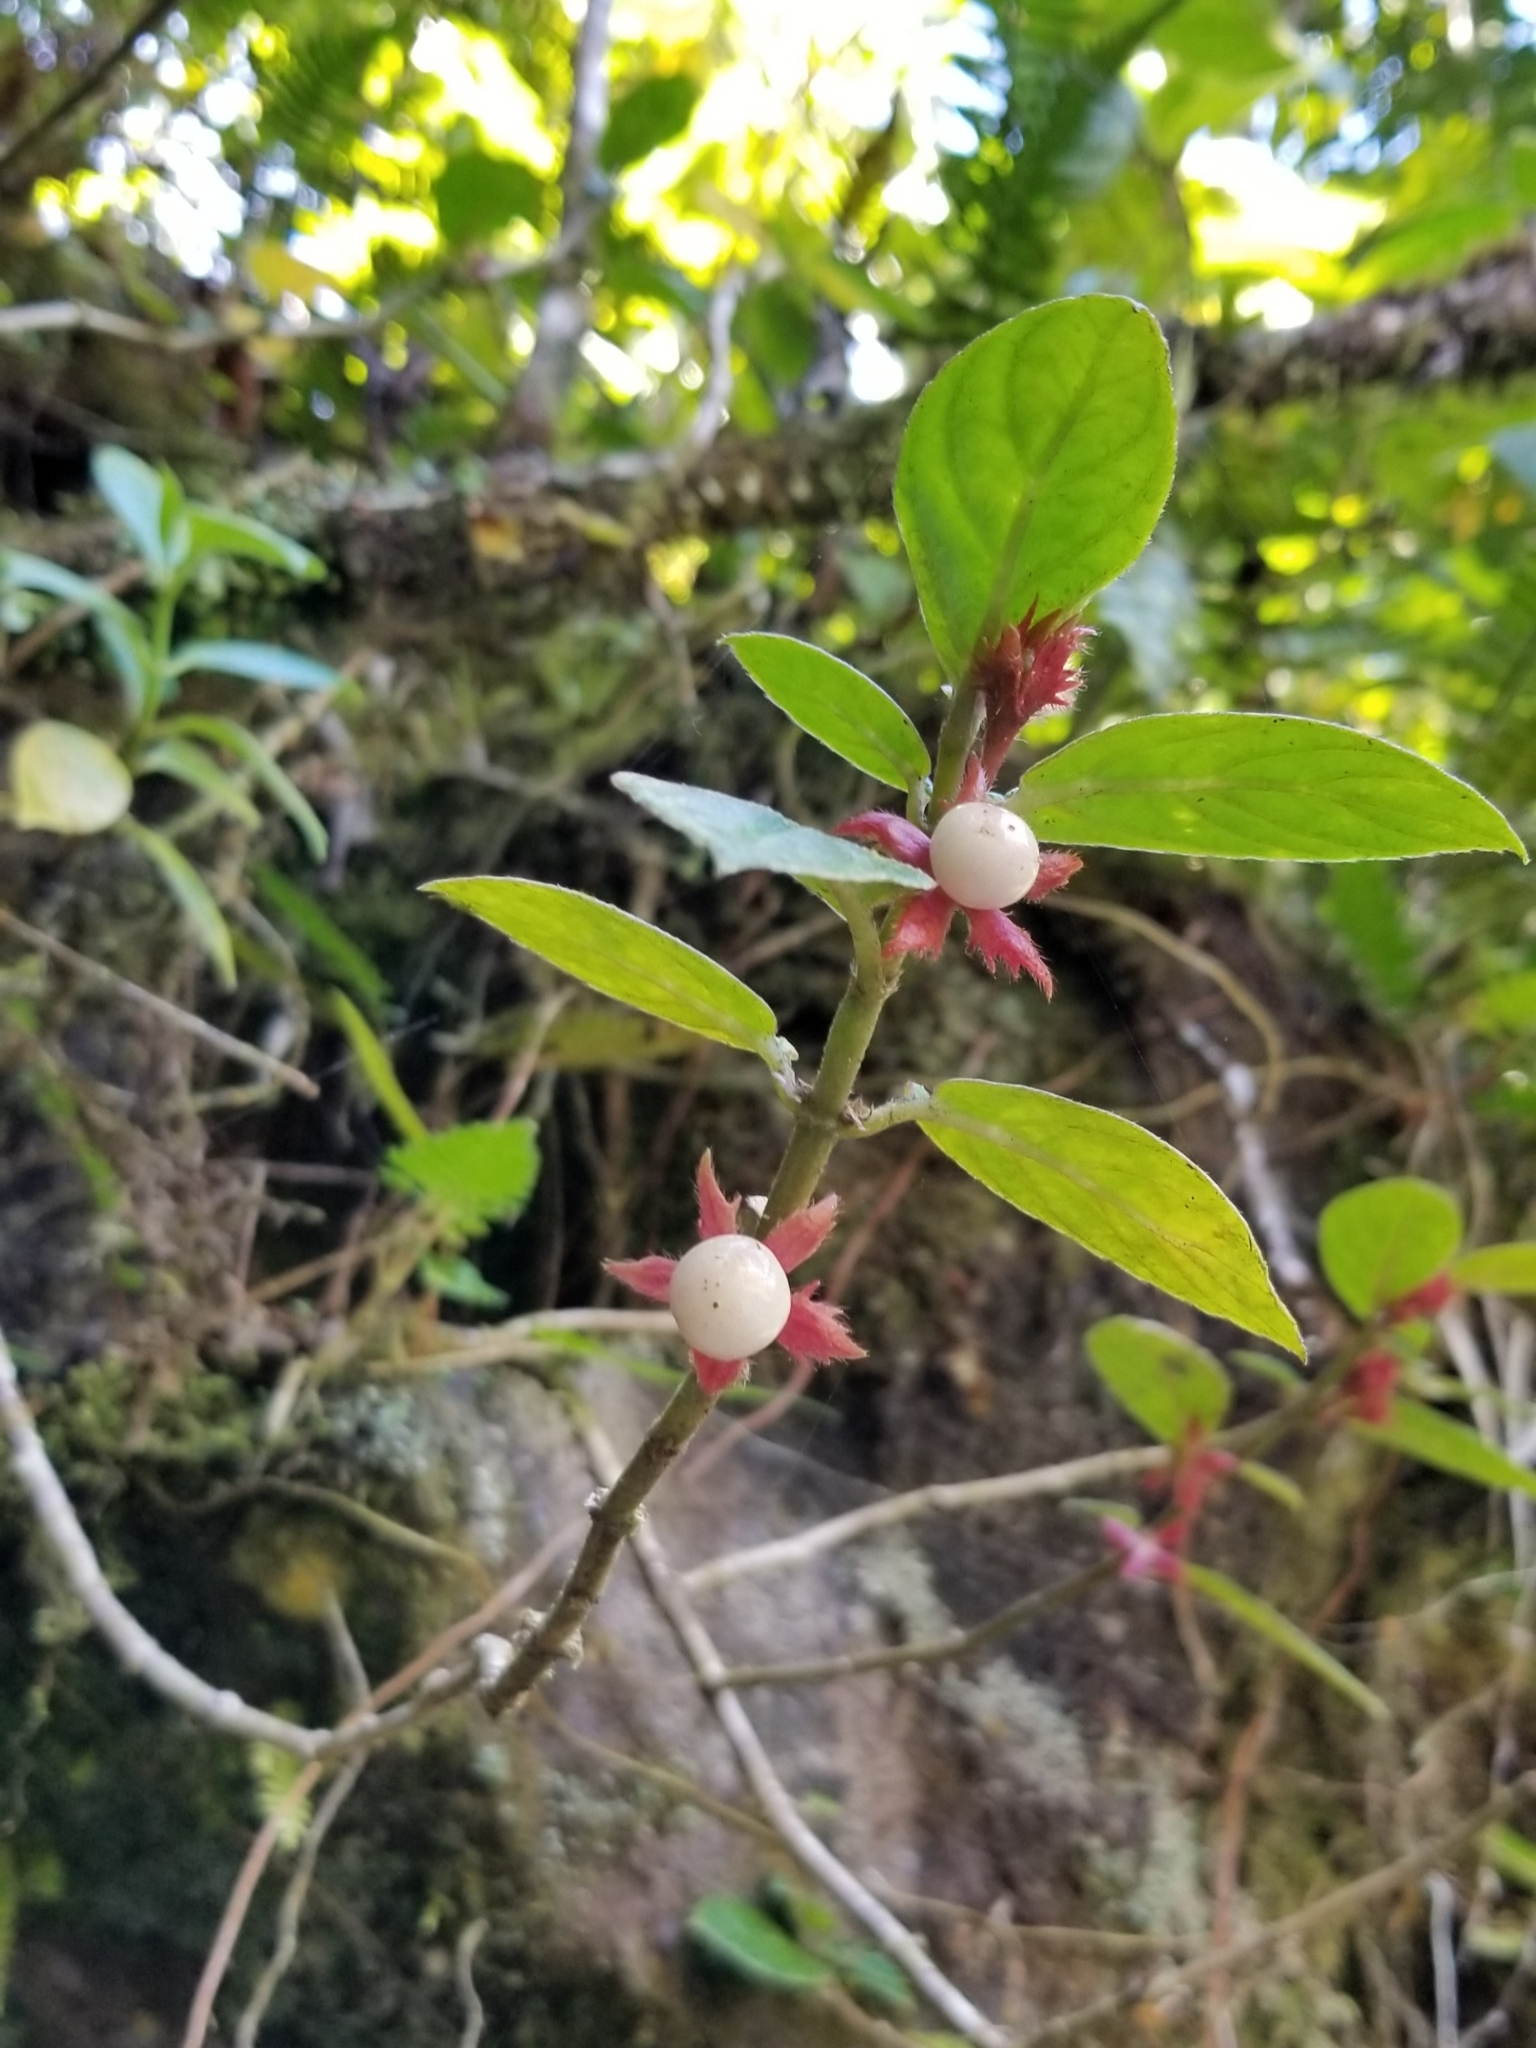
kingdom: Plantae
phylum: Tracheophyta
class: Magnoliopsida
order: Lamiales
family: Gesneriaceae
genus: Columnea
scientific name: Columnea ambigua
